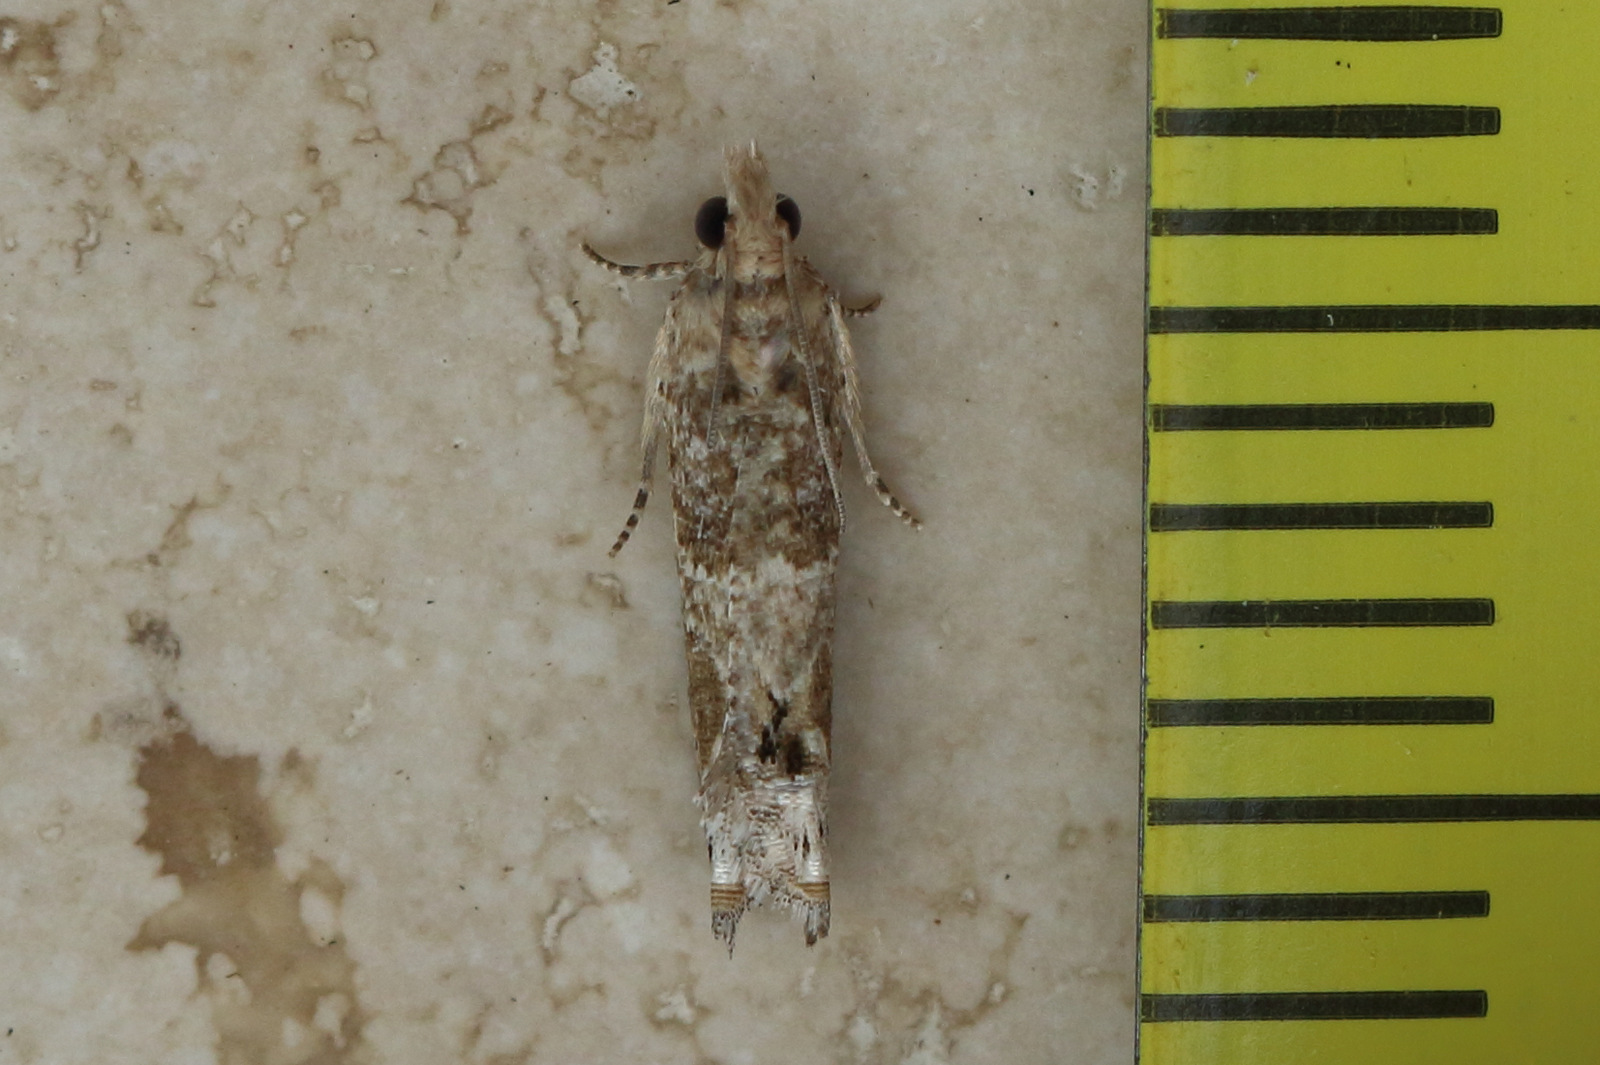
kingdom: Animalia
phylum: Arthropoda
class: Insecta
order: Lepidoptera
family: Tortricidae
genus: Crocidosema
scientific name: Crocidosema plebejana
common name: Southern bell
